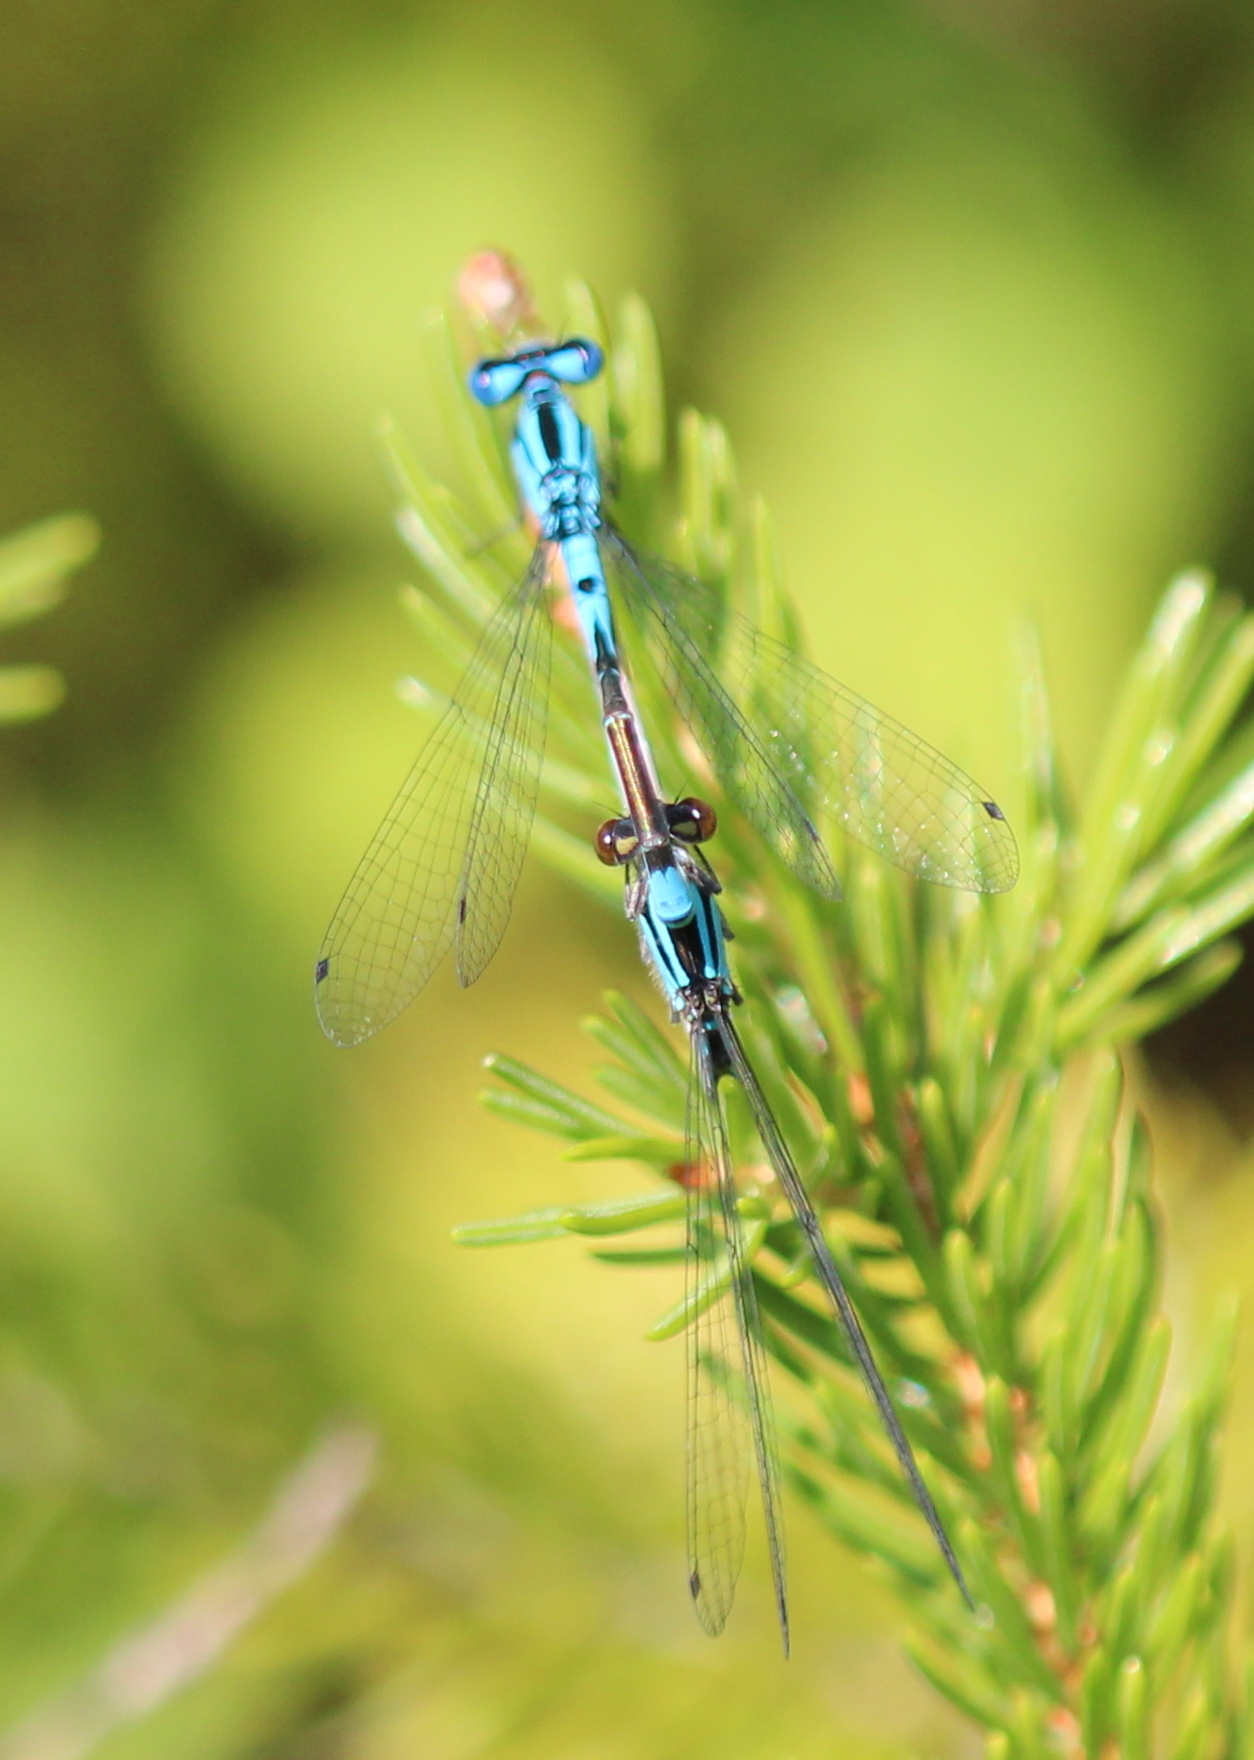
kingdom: Animalia
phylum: Arthropoda
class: Insecta
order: Odonata
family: Coenagrionidae
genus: Enallagma
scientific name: Enallagma aspersum
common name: Azure bluet
